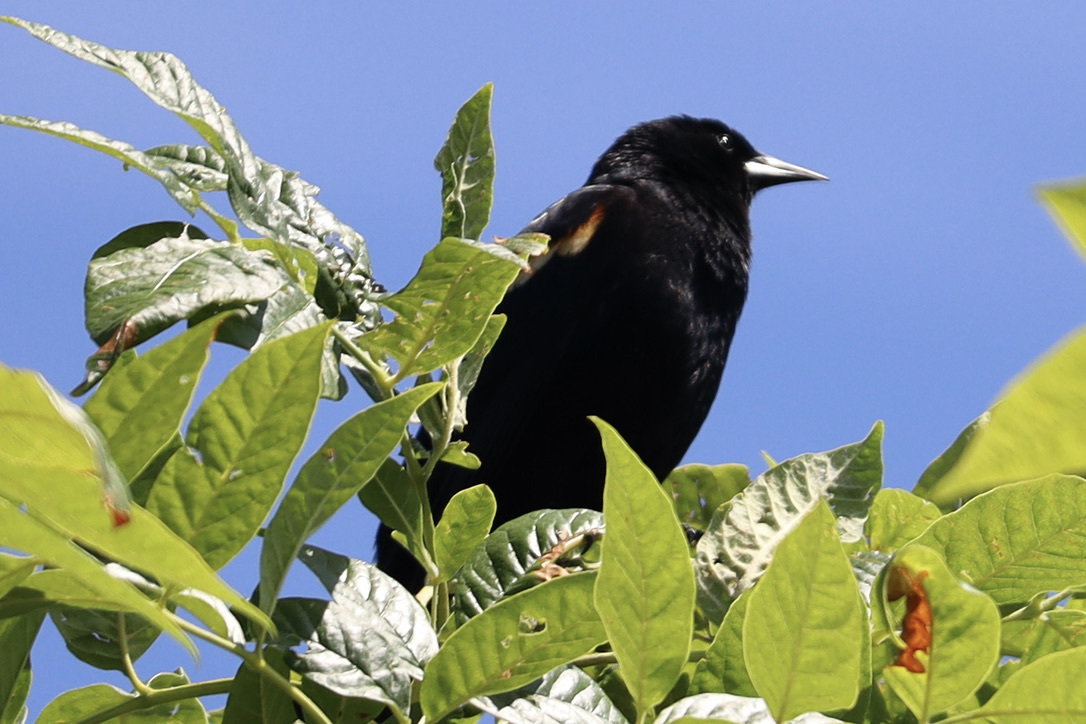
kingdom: Animalia
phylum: Chordata
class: Aves
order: Passeriformes
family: Icteridae
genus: Agelaius
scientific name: Agelaius phoeniceus
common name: Red-winged blackbird
